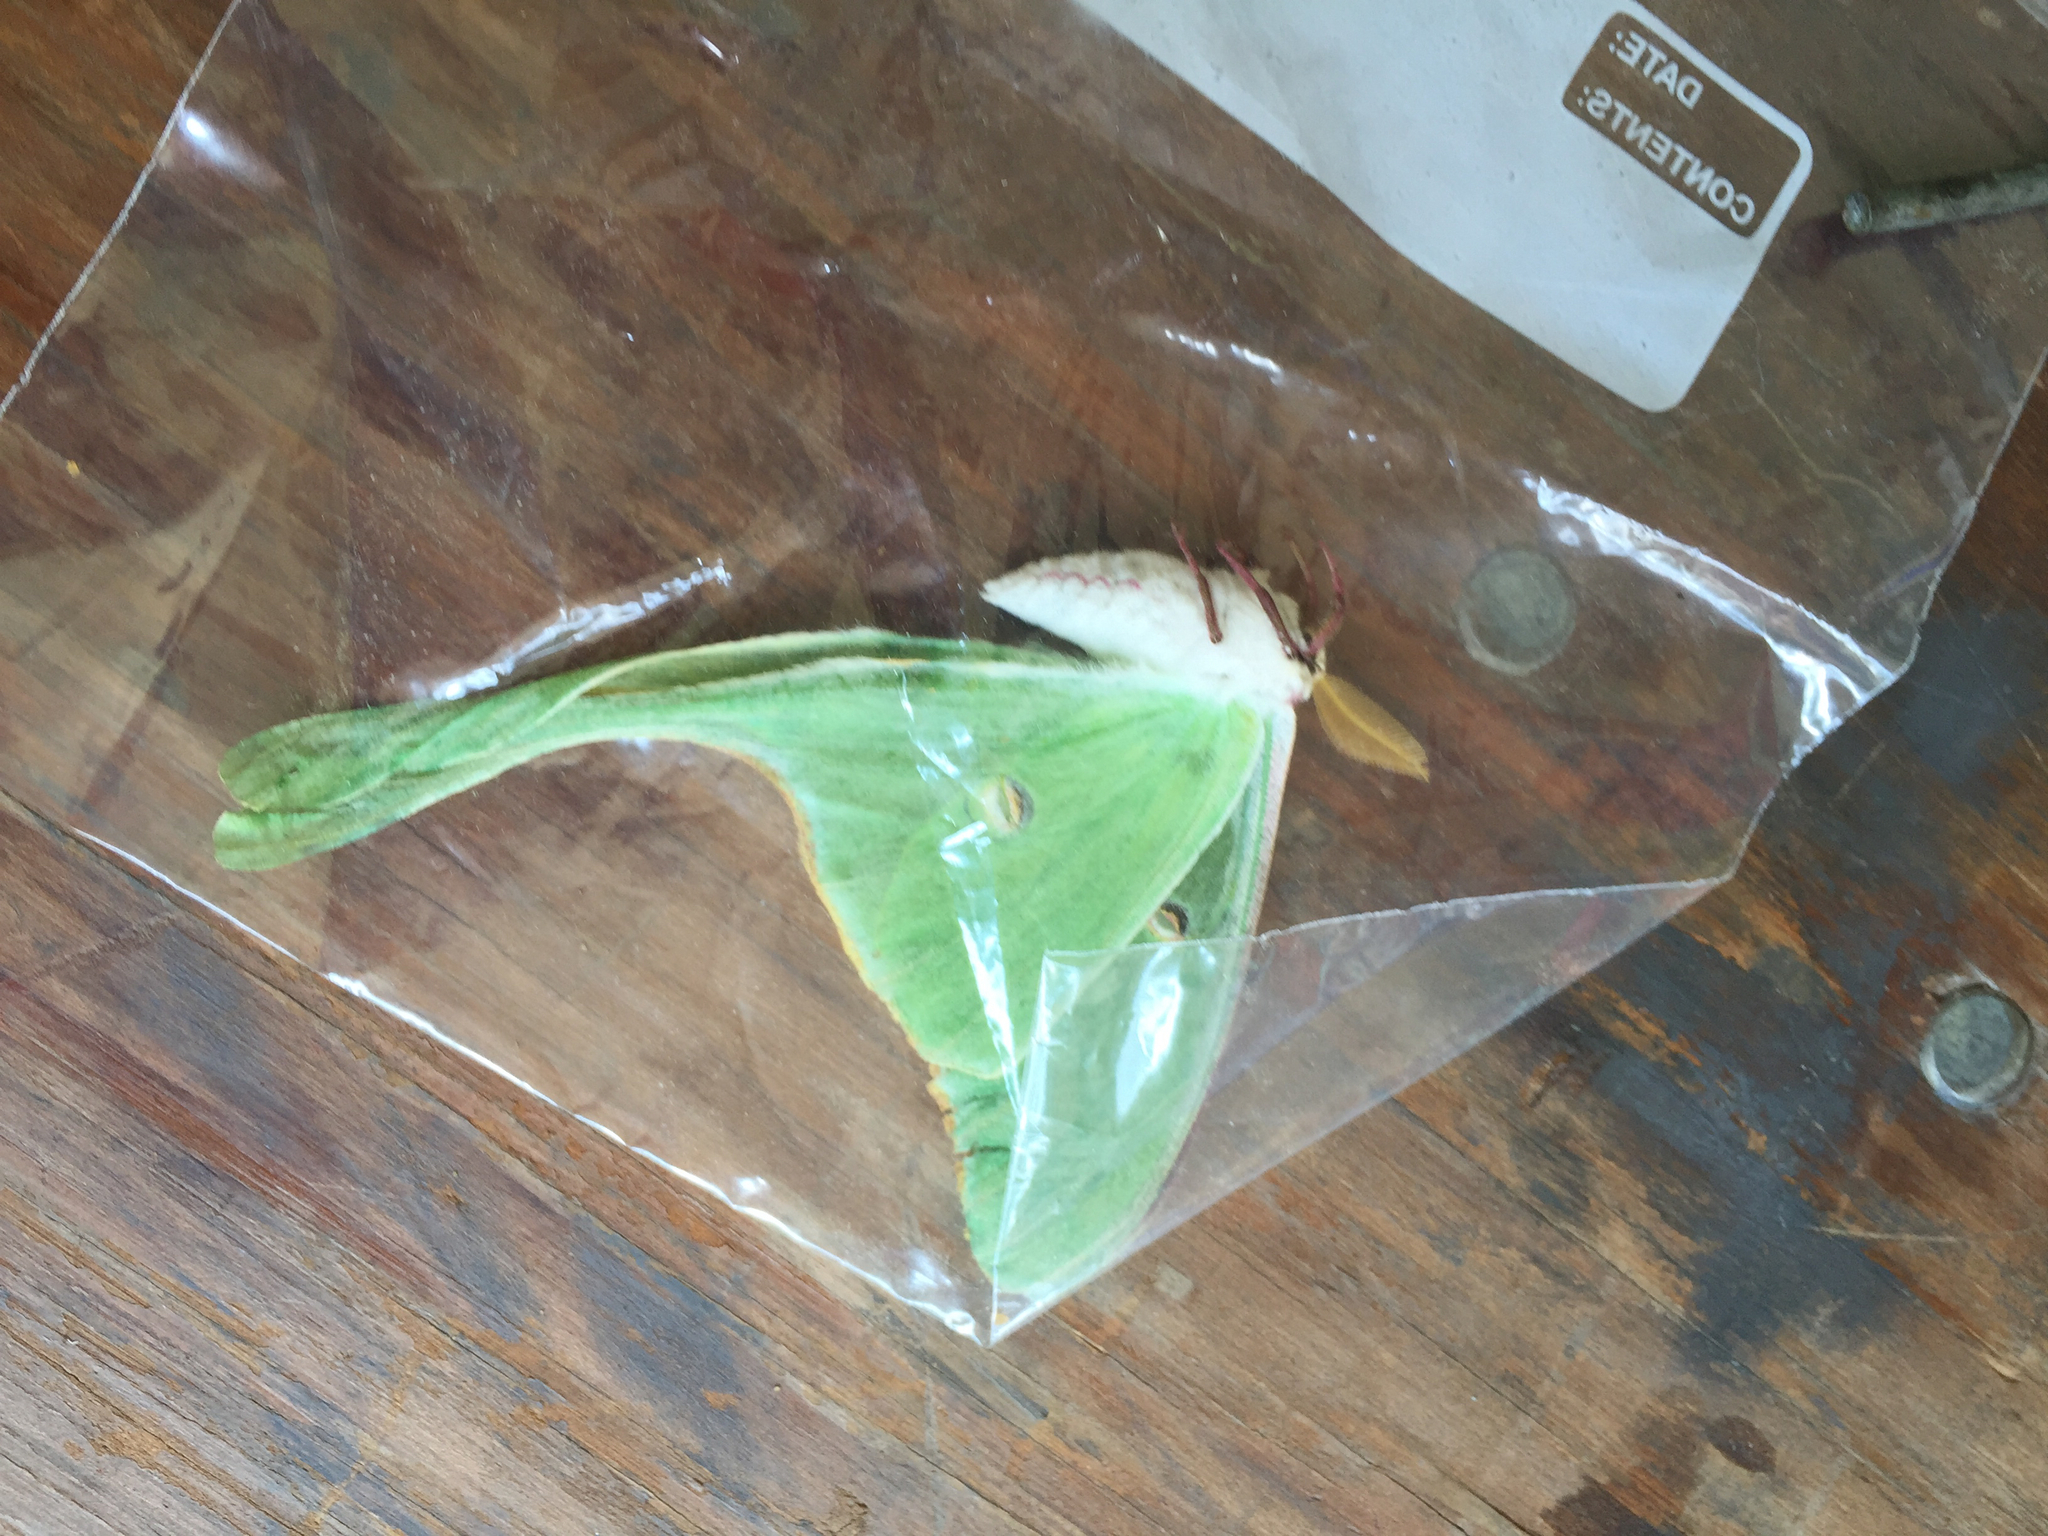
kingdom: Animalia
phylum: Arthropoda
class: Insecta
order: Lepidoptera
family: Saturniidae
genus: Actias
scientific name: Actias luna
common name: Luna moth
